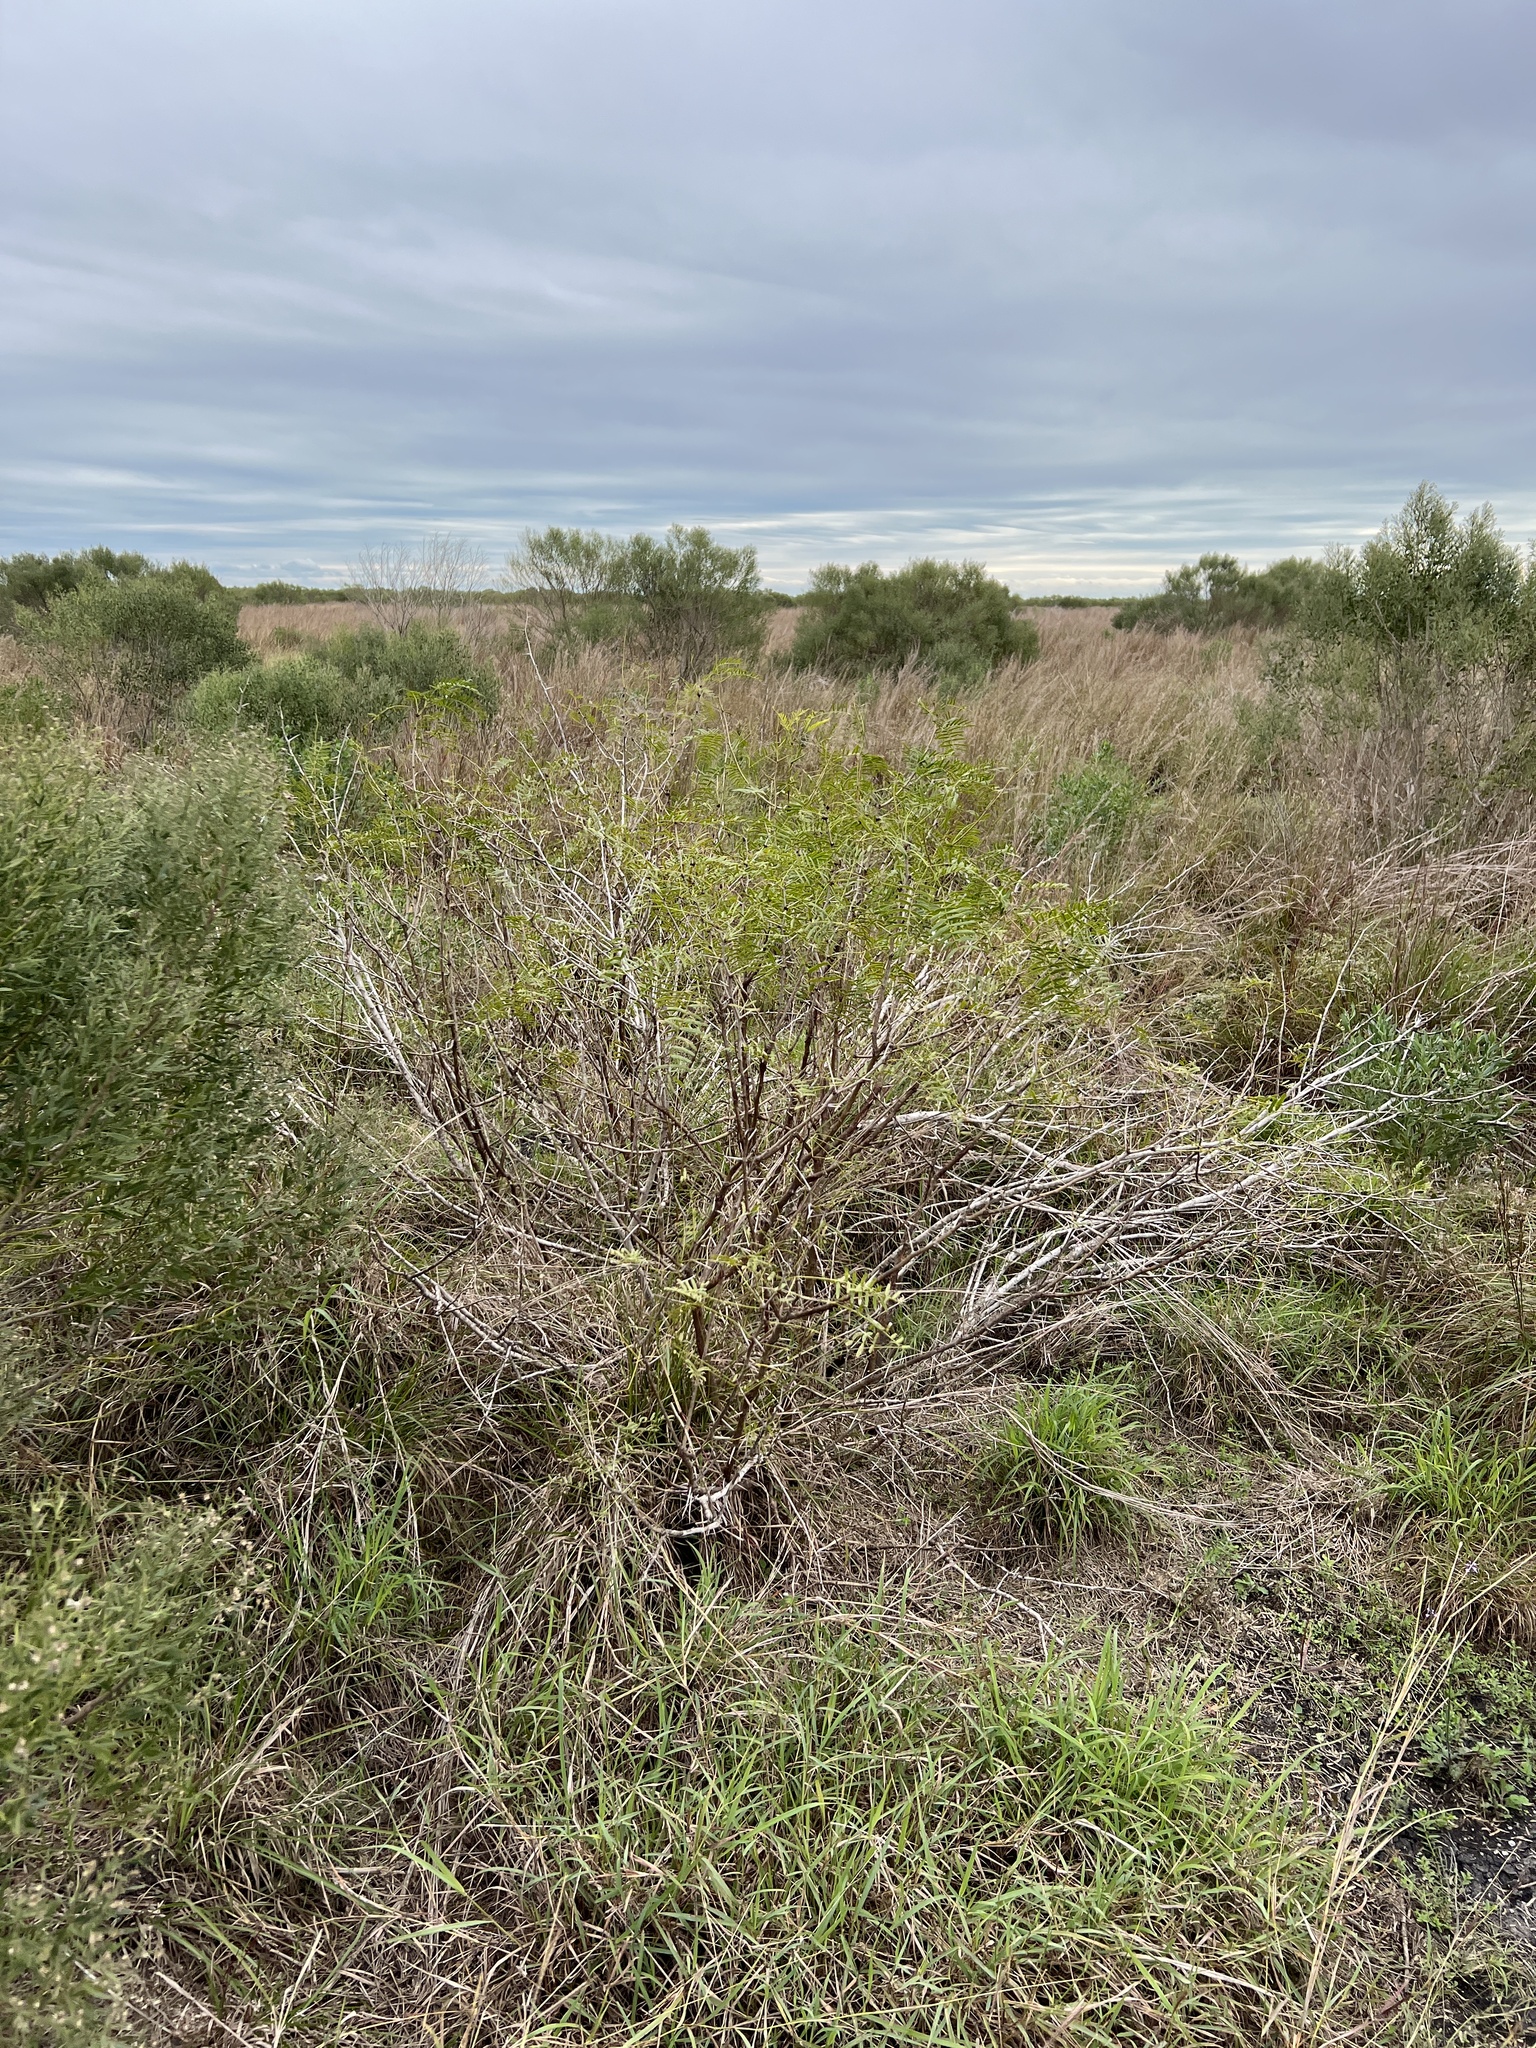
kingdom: Plantae
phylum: Tracheophyta
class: Magnoliopsida
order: Fabales
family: Fabaceae
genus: Prosopis
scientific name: Prosopis glandulosa
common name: Honey mesquite
